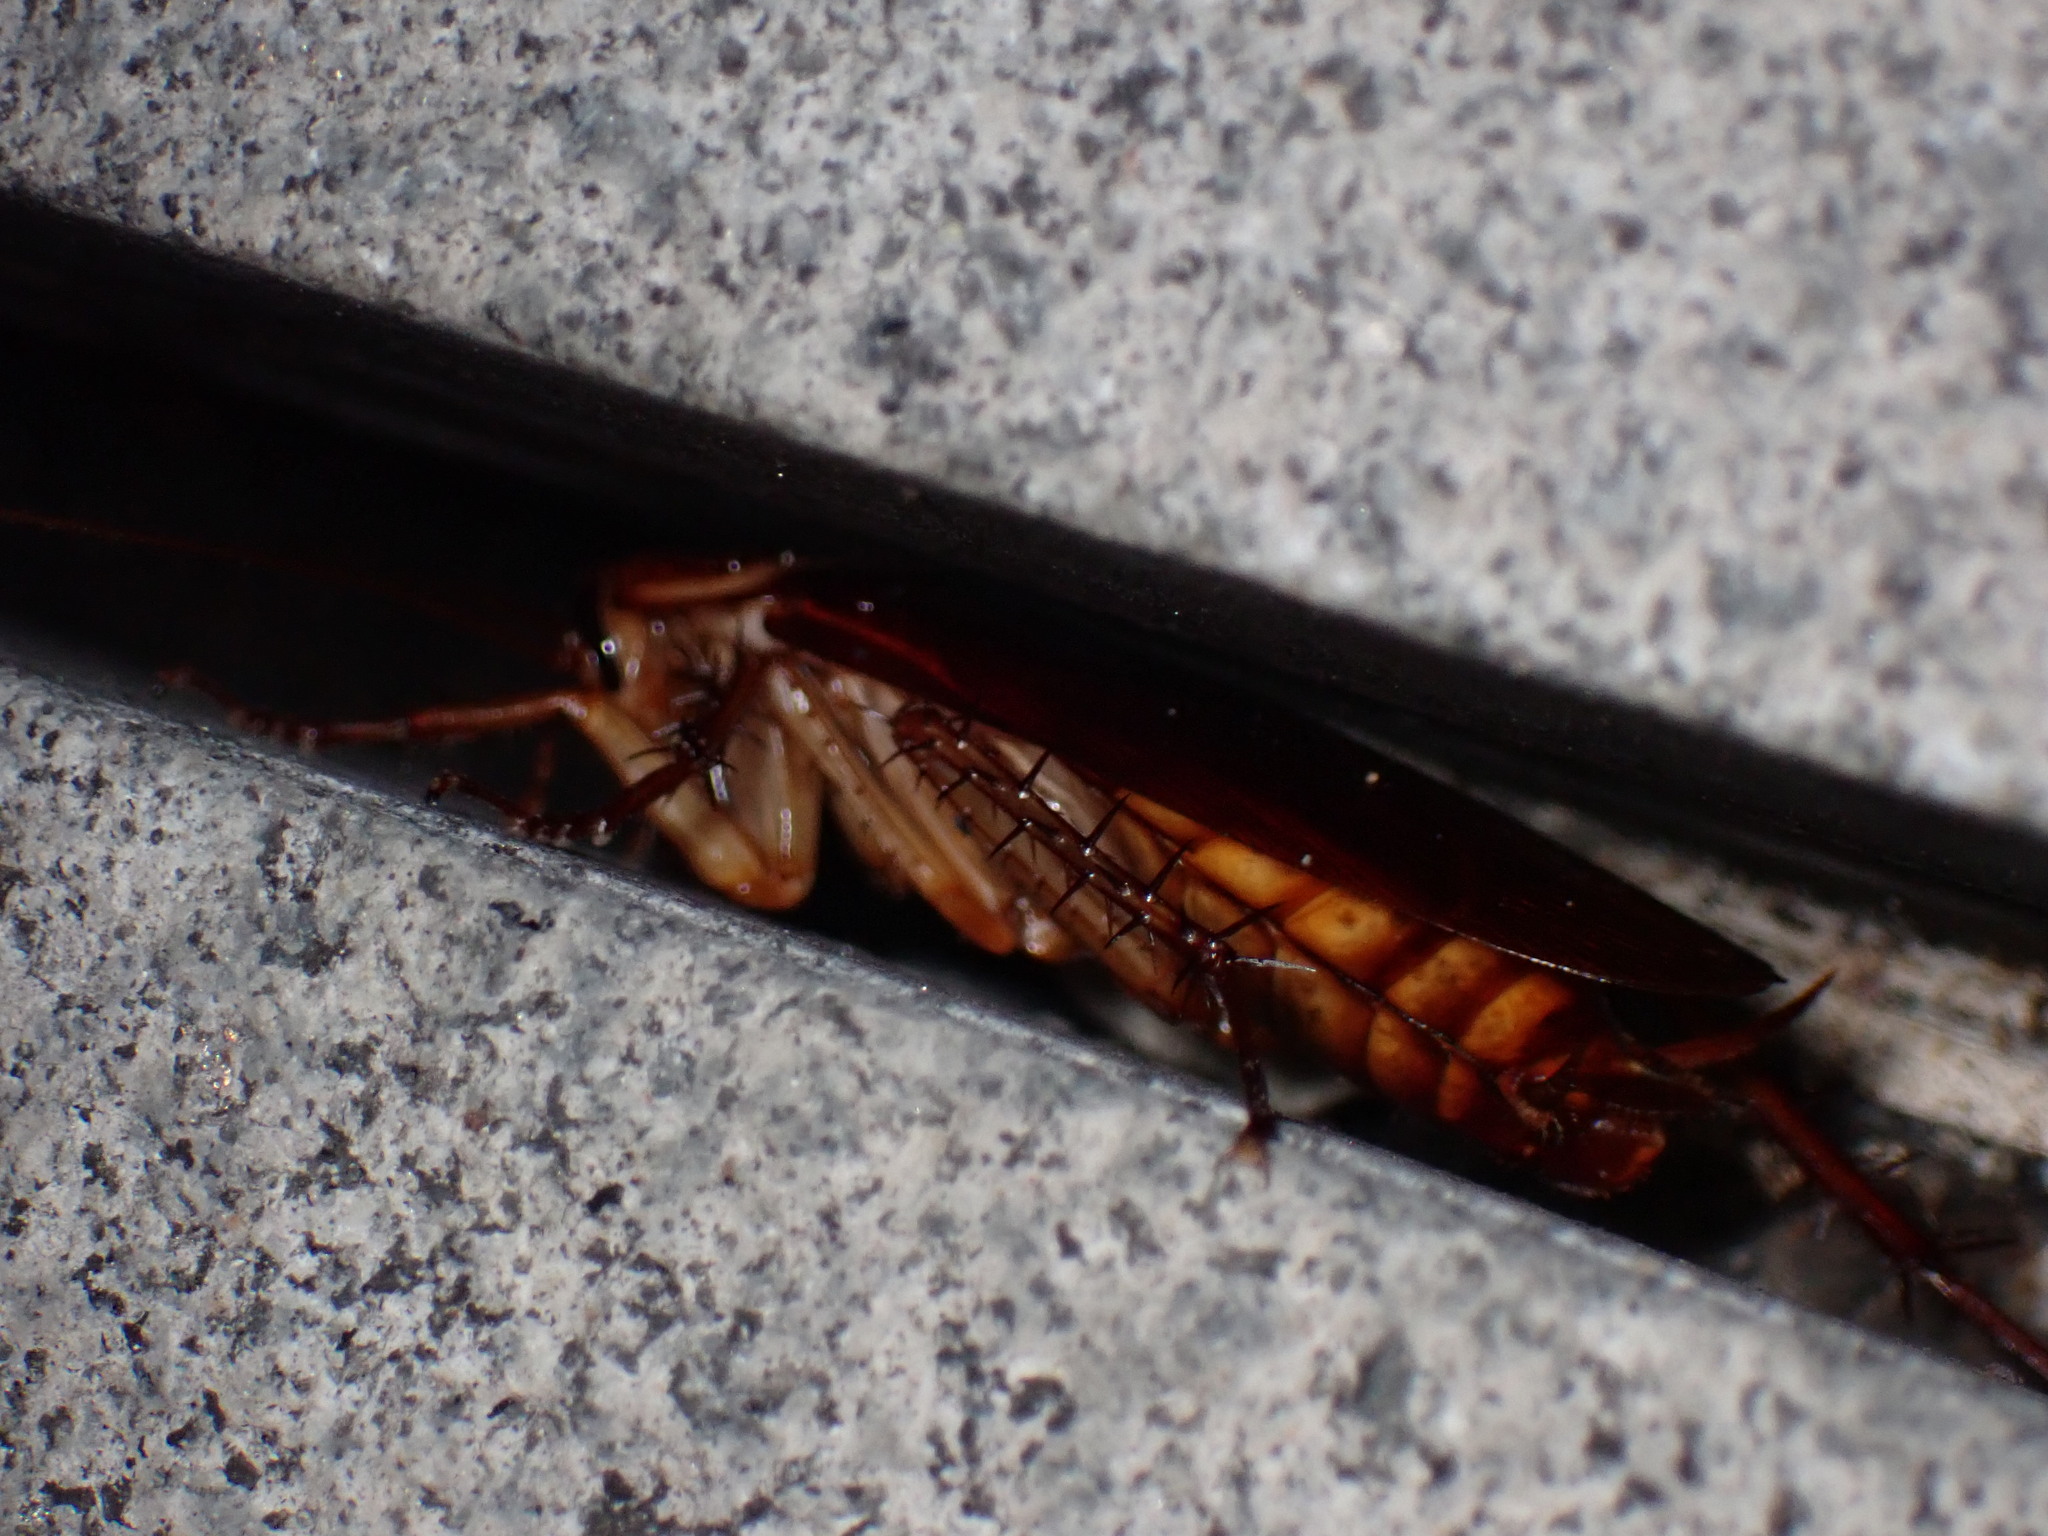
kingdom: Animalia
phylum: Arthropoda
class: Insecta
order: Blattodea
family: Blattidae
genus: Periplaneta
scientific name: Periplaneta americana
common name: American cockroach
